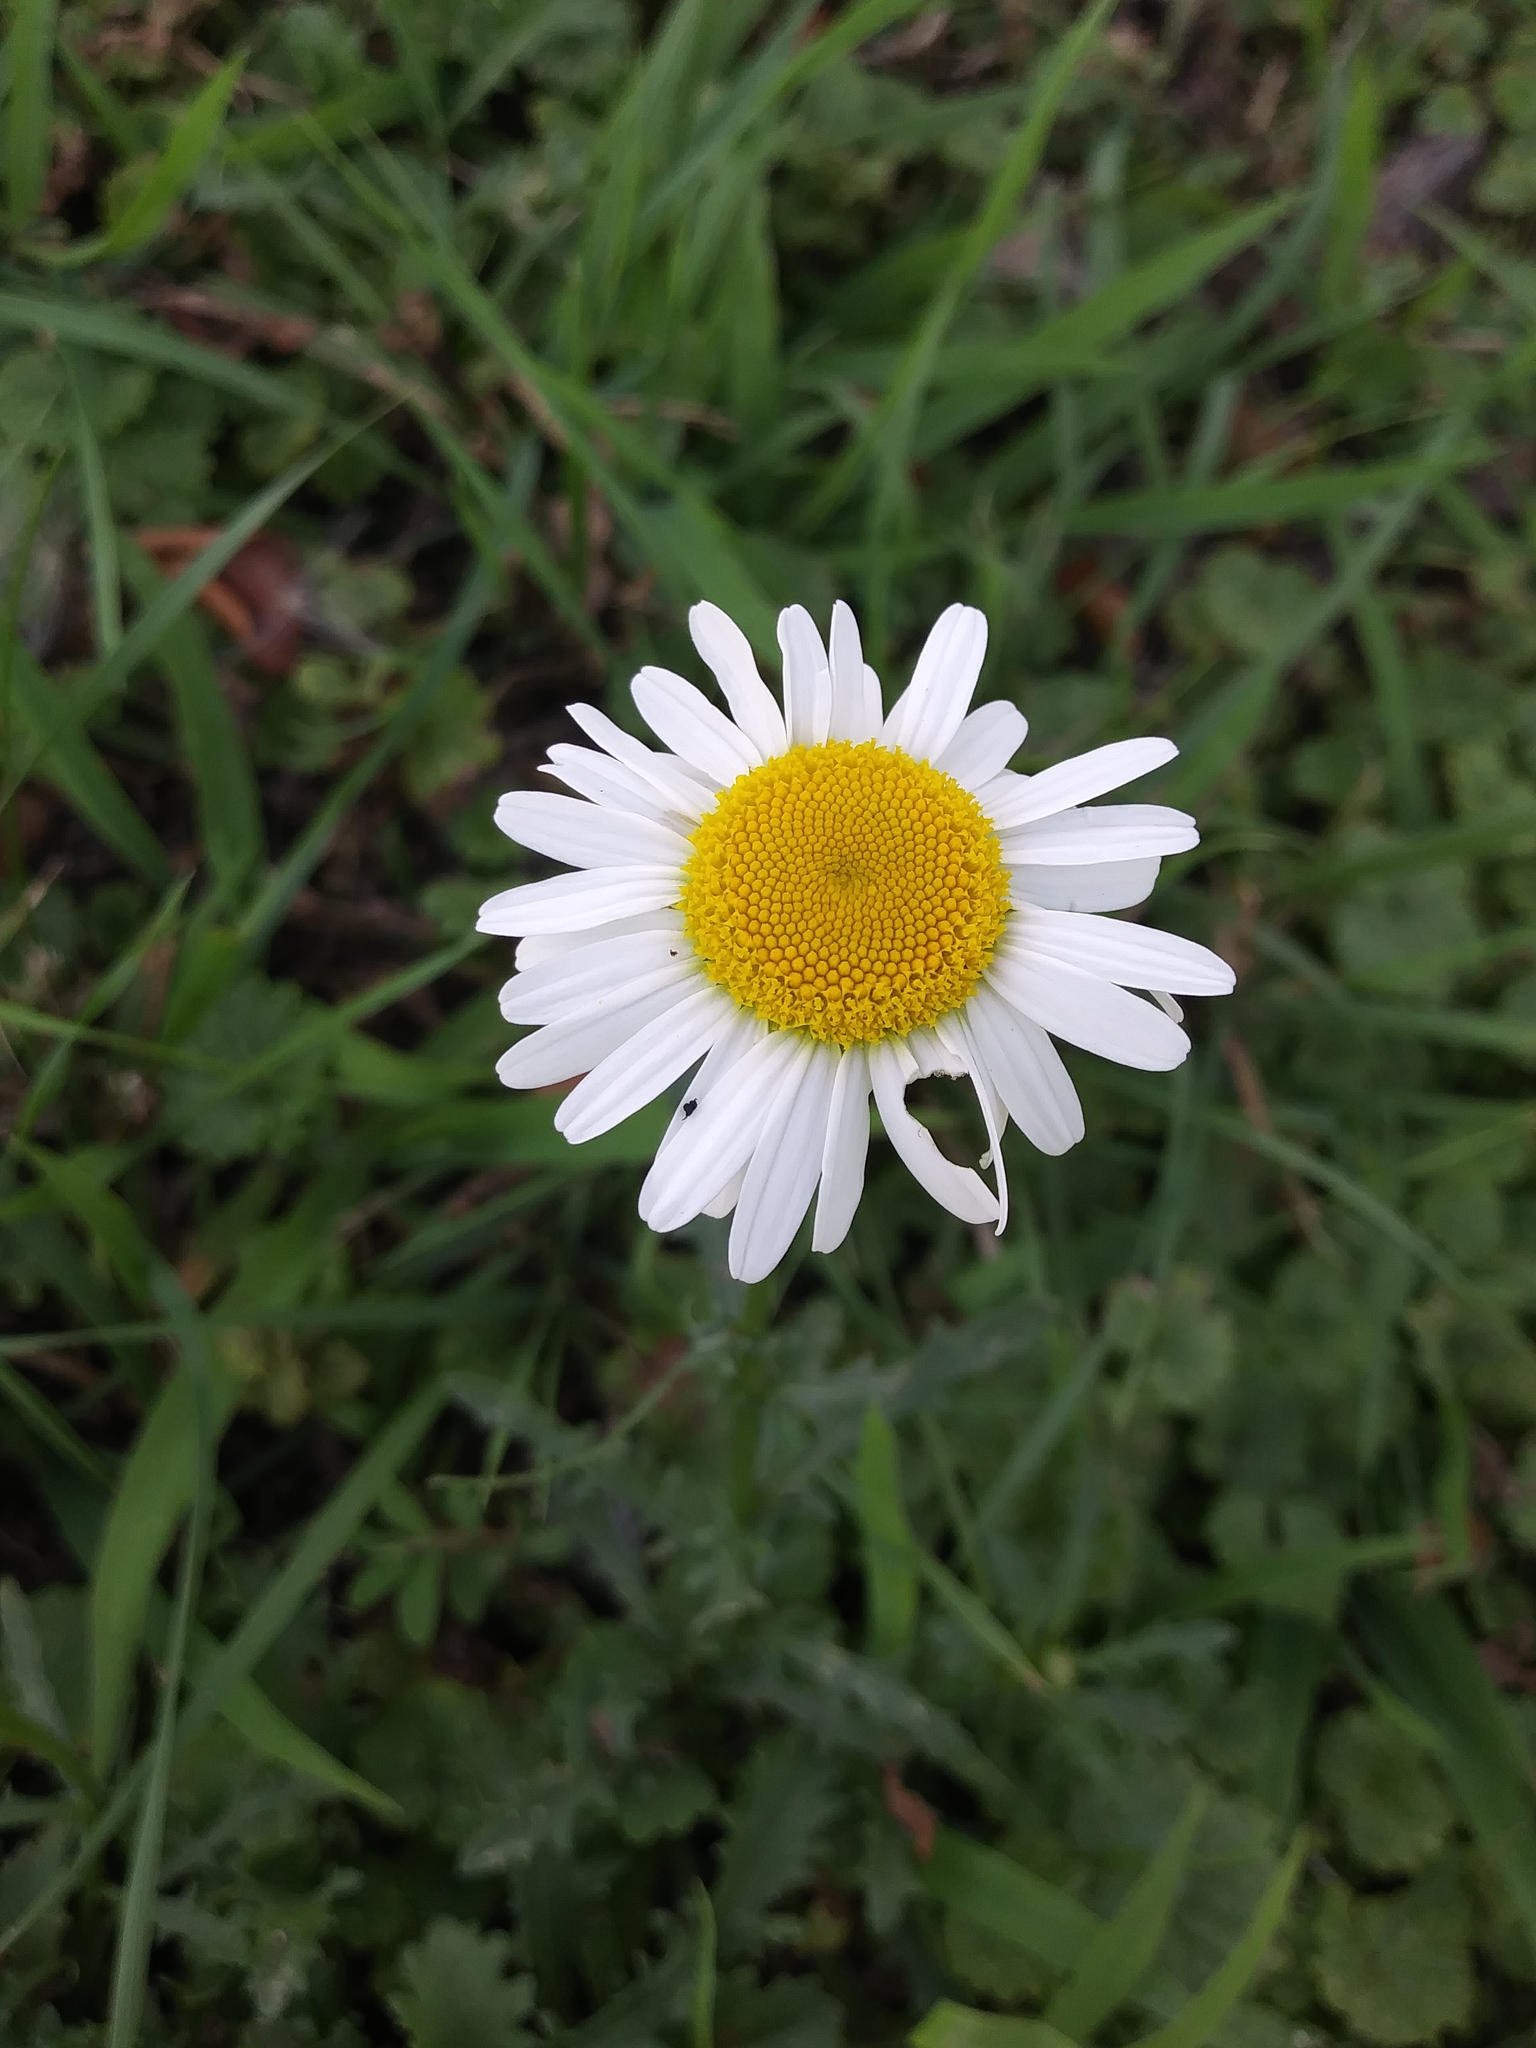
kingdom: Plantae
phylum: Tracheophyta
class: Magnoliopsida
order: Asterales
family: Asteraceae
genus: Leucanthemum
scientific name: Leucanthemum vulgare
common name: Oxeye daisy
